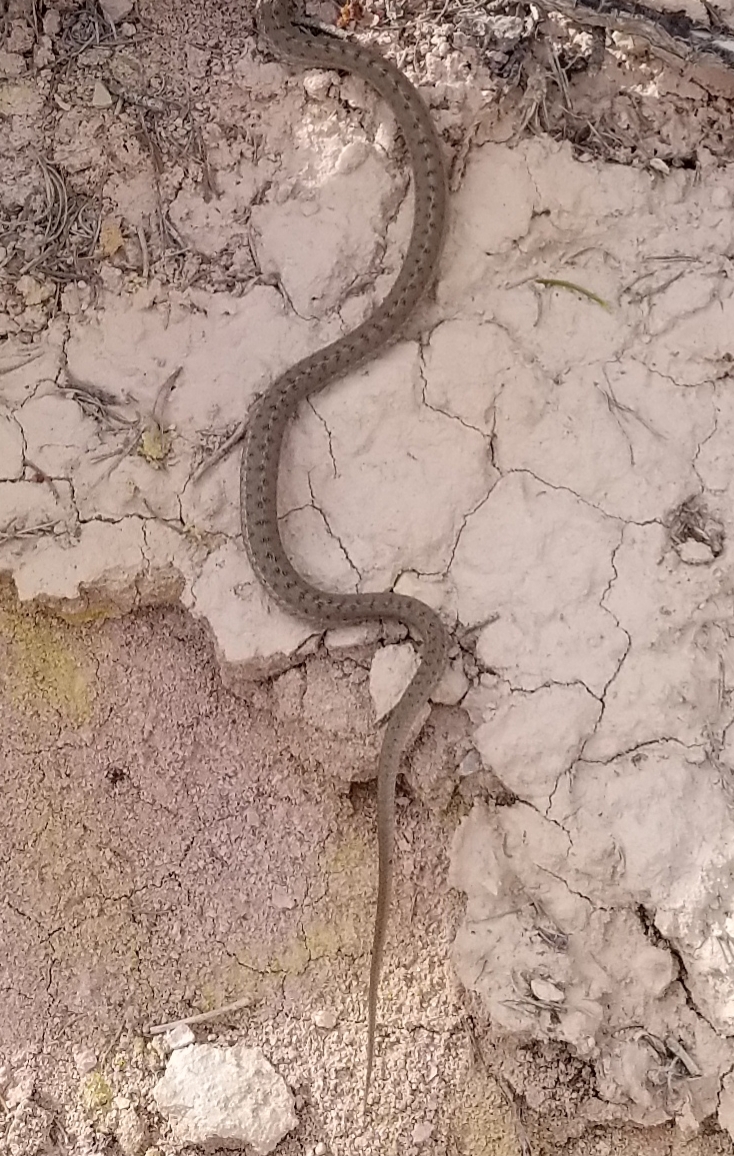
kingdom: Animalia
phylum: Chordata
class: Squamata
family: Colubridae
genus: Thamnophis
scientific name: Thamnophis elegans
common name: Western terrestrial garter snake
